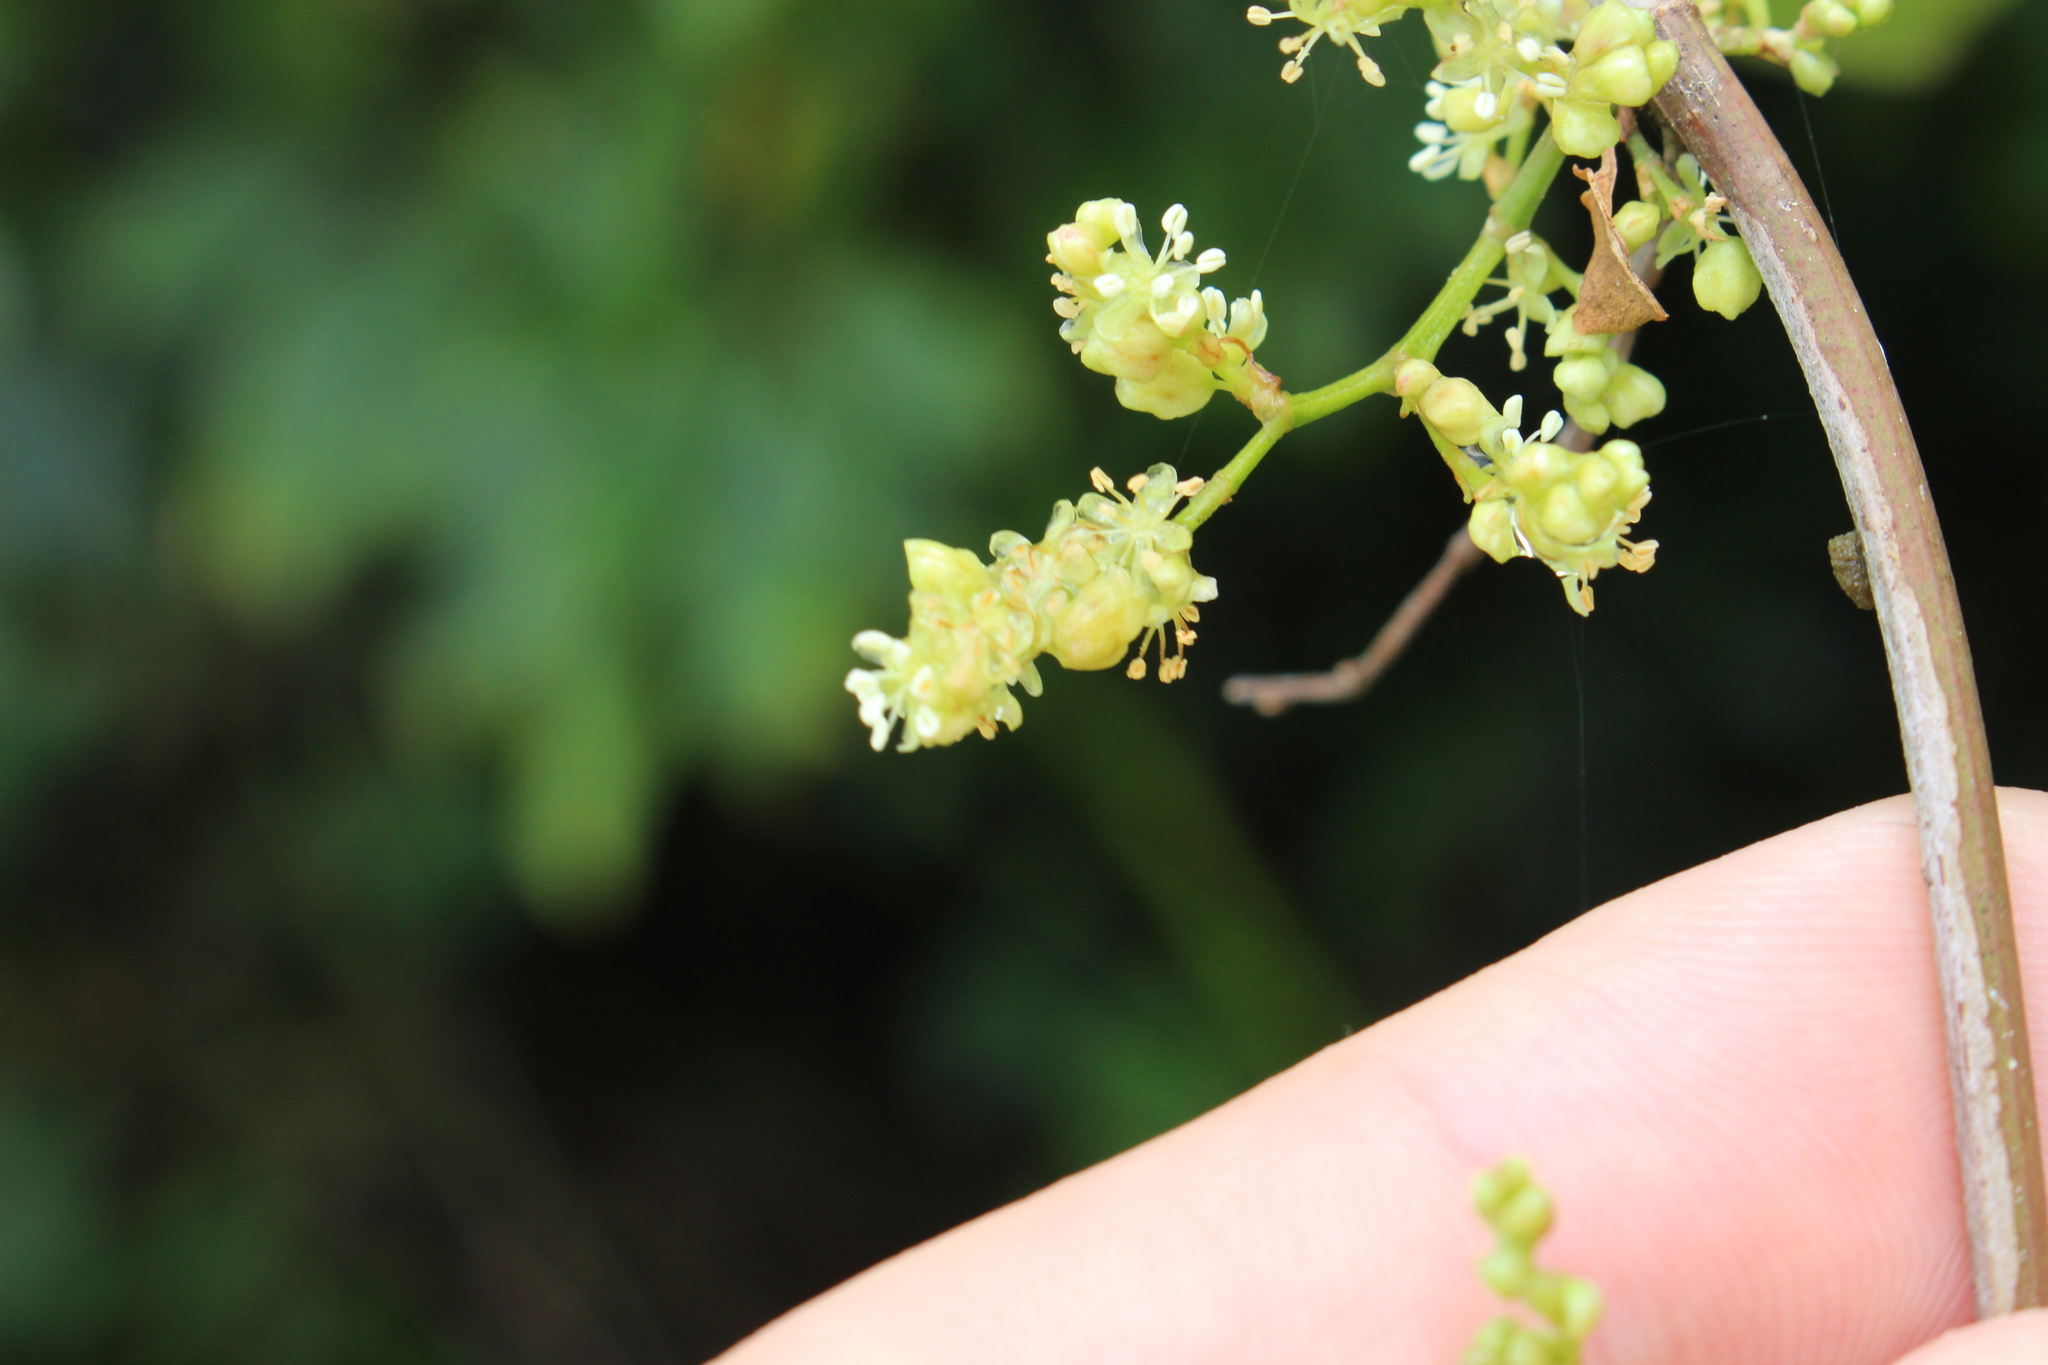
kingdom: Plantae
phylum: Tracheophyta
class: Magnoliopsida
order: Caryophyllales
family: Polygonaceae
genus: Muehlenbeckia
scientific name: Muehlenbeckia australis
